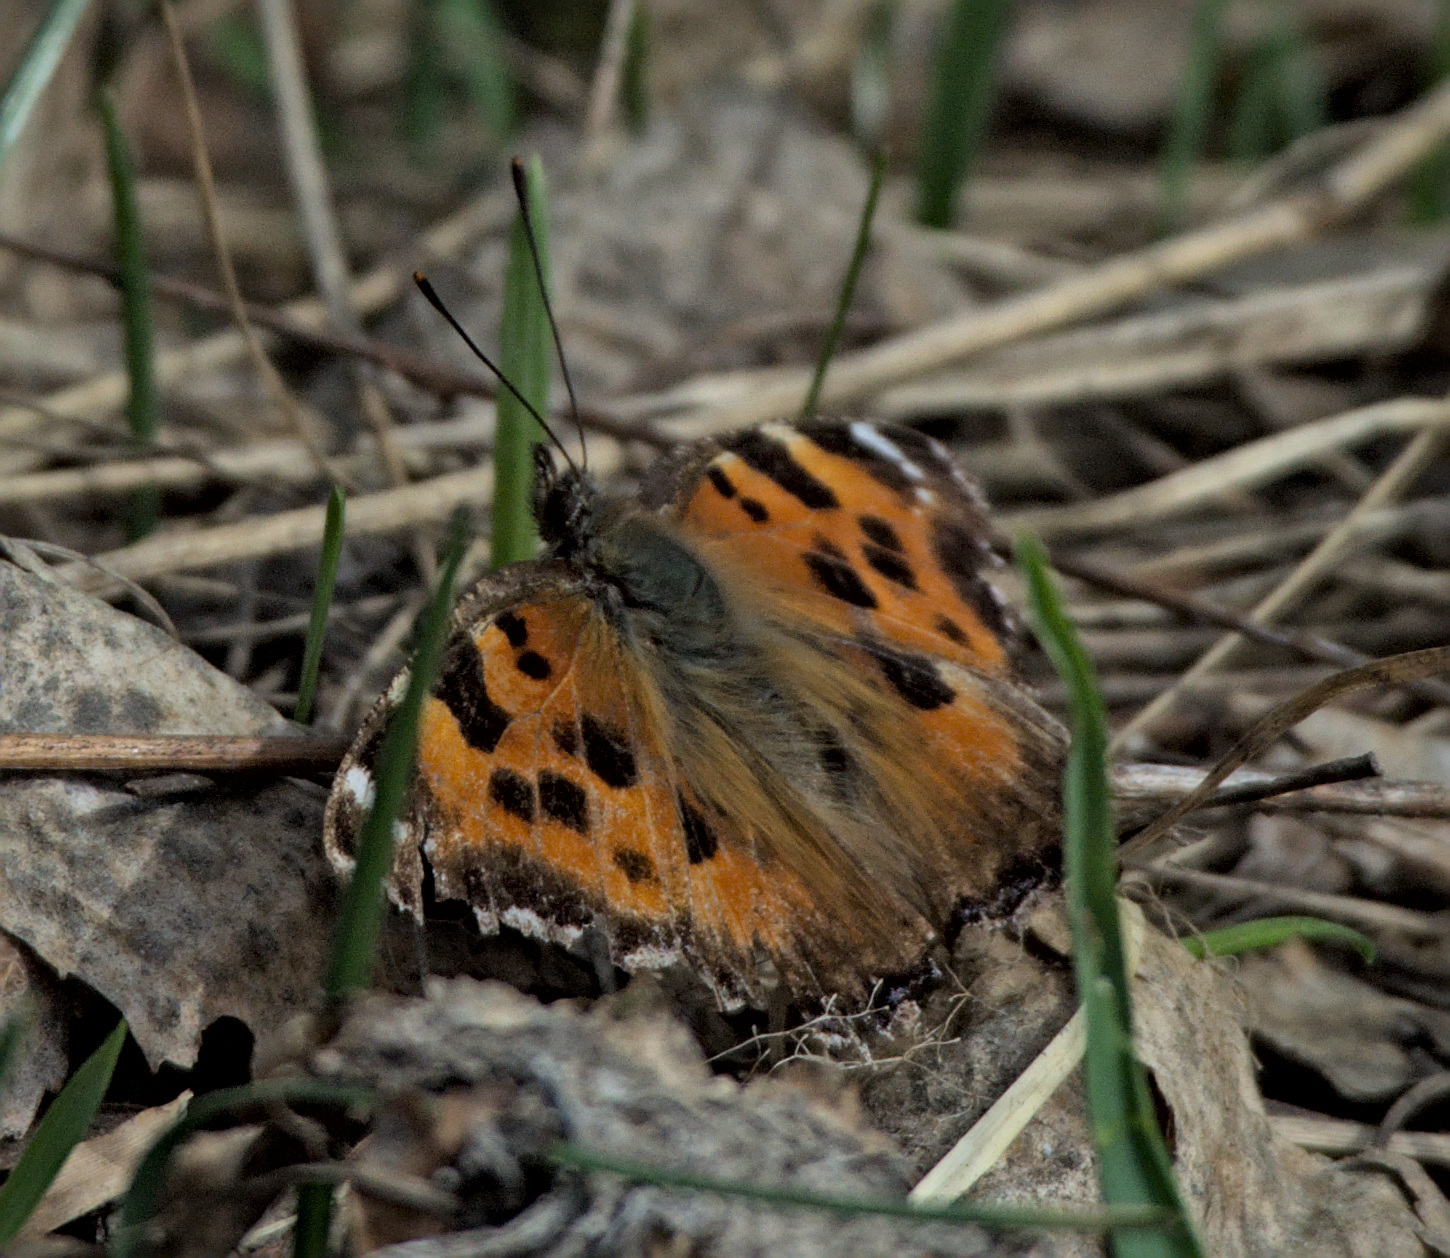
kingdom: Animalia
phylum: Arthropoda
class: Insecta
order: Lepidoptera
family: Nymphalidae
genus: Nymphalis
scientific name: Nymphalis xanthomelas
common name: Scarce tortoiseshell
